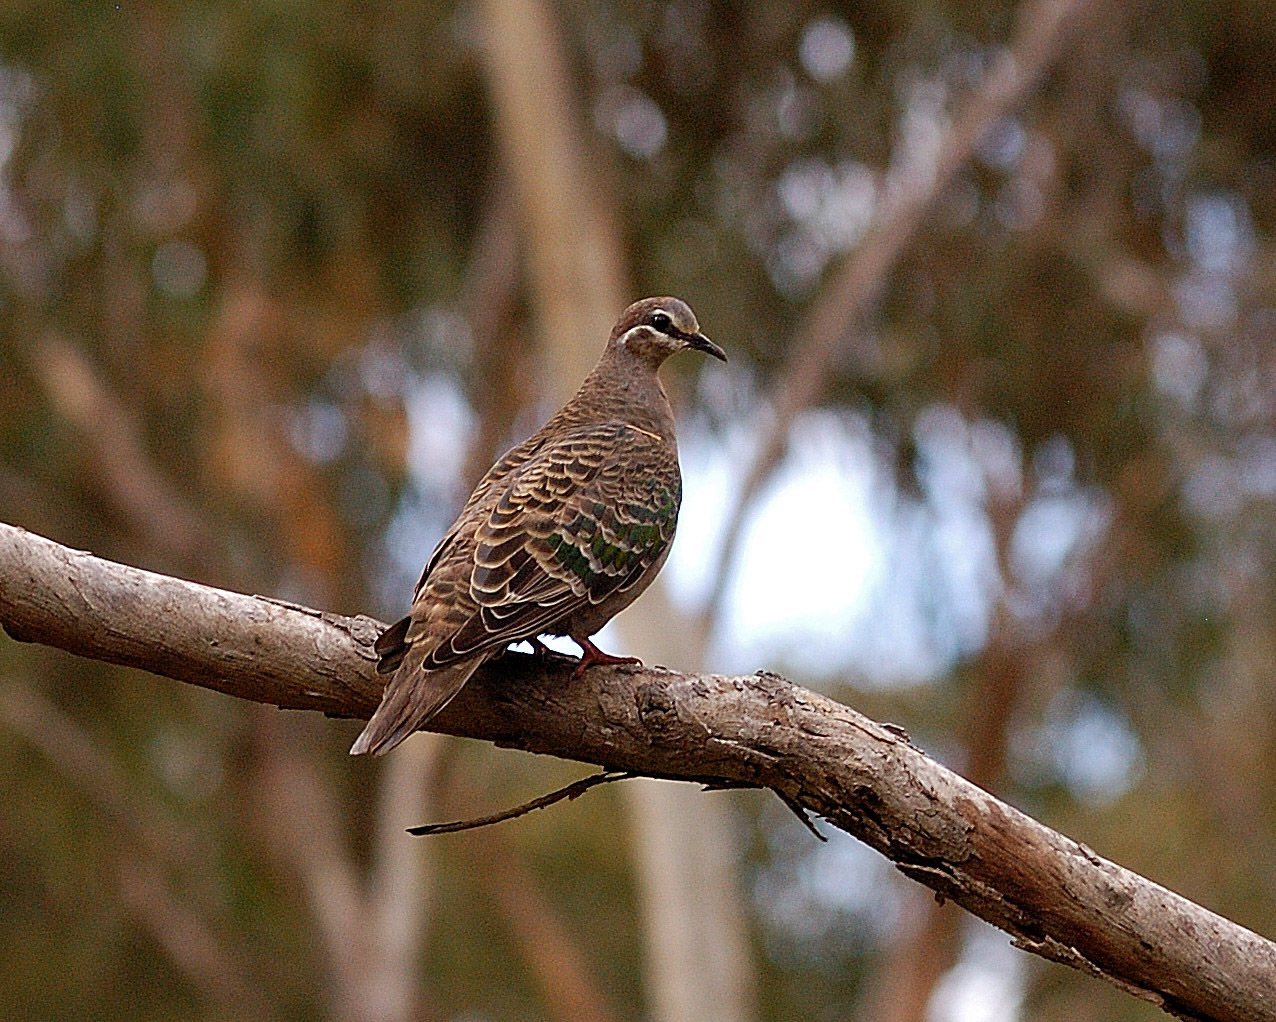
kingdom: Animalia
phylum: Chordata
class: Aves
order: Columbiformes
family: Columbidae
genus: Phaps
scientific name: Phaps chalcoptera
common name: Common bronzewing
